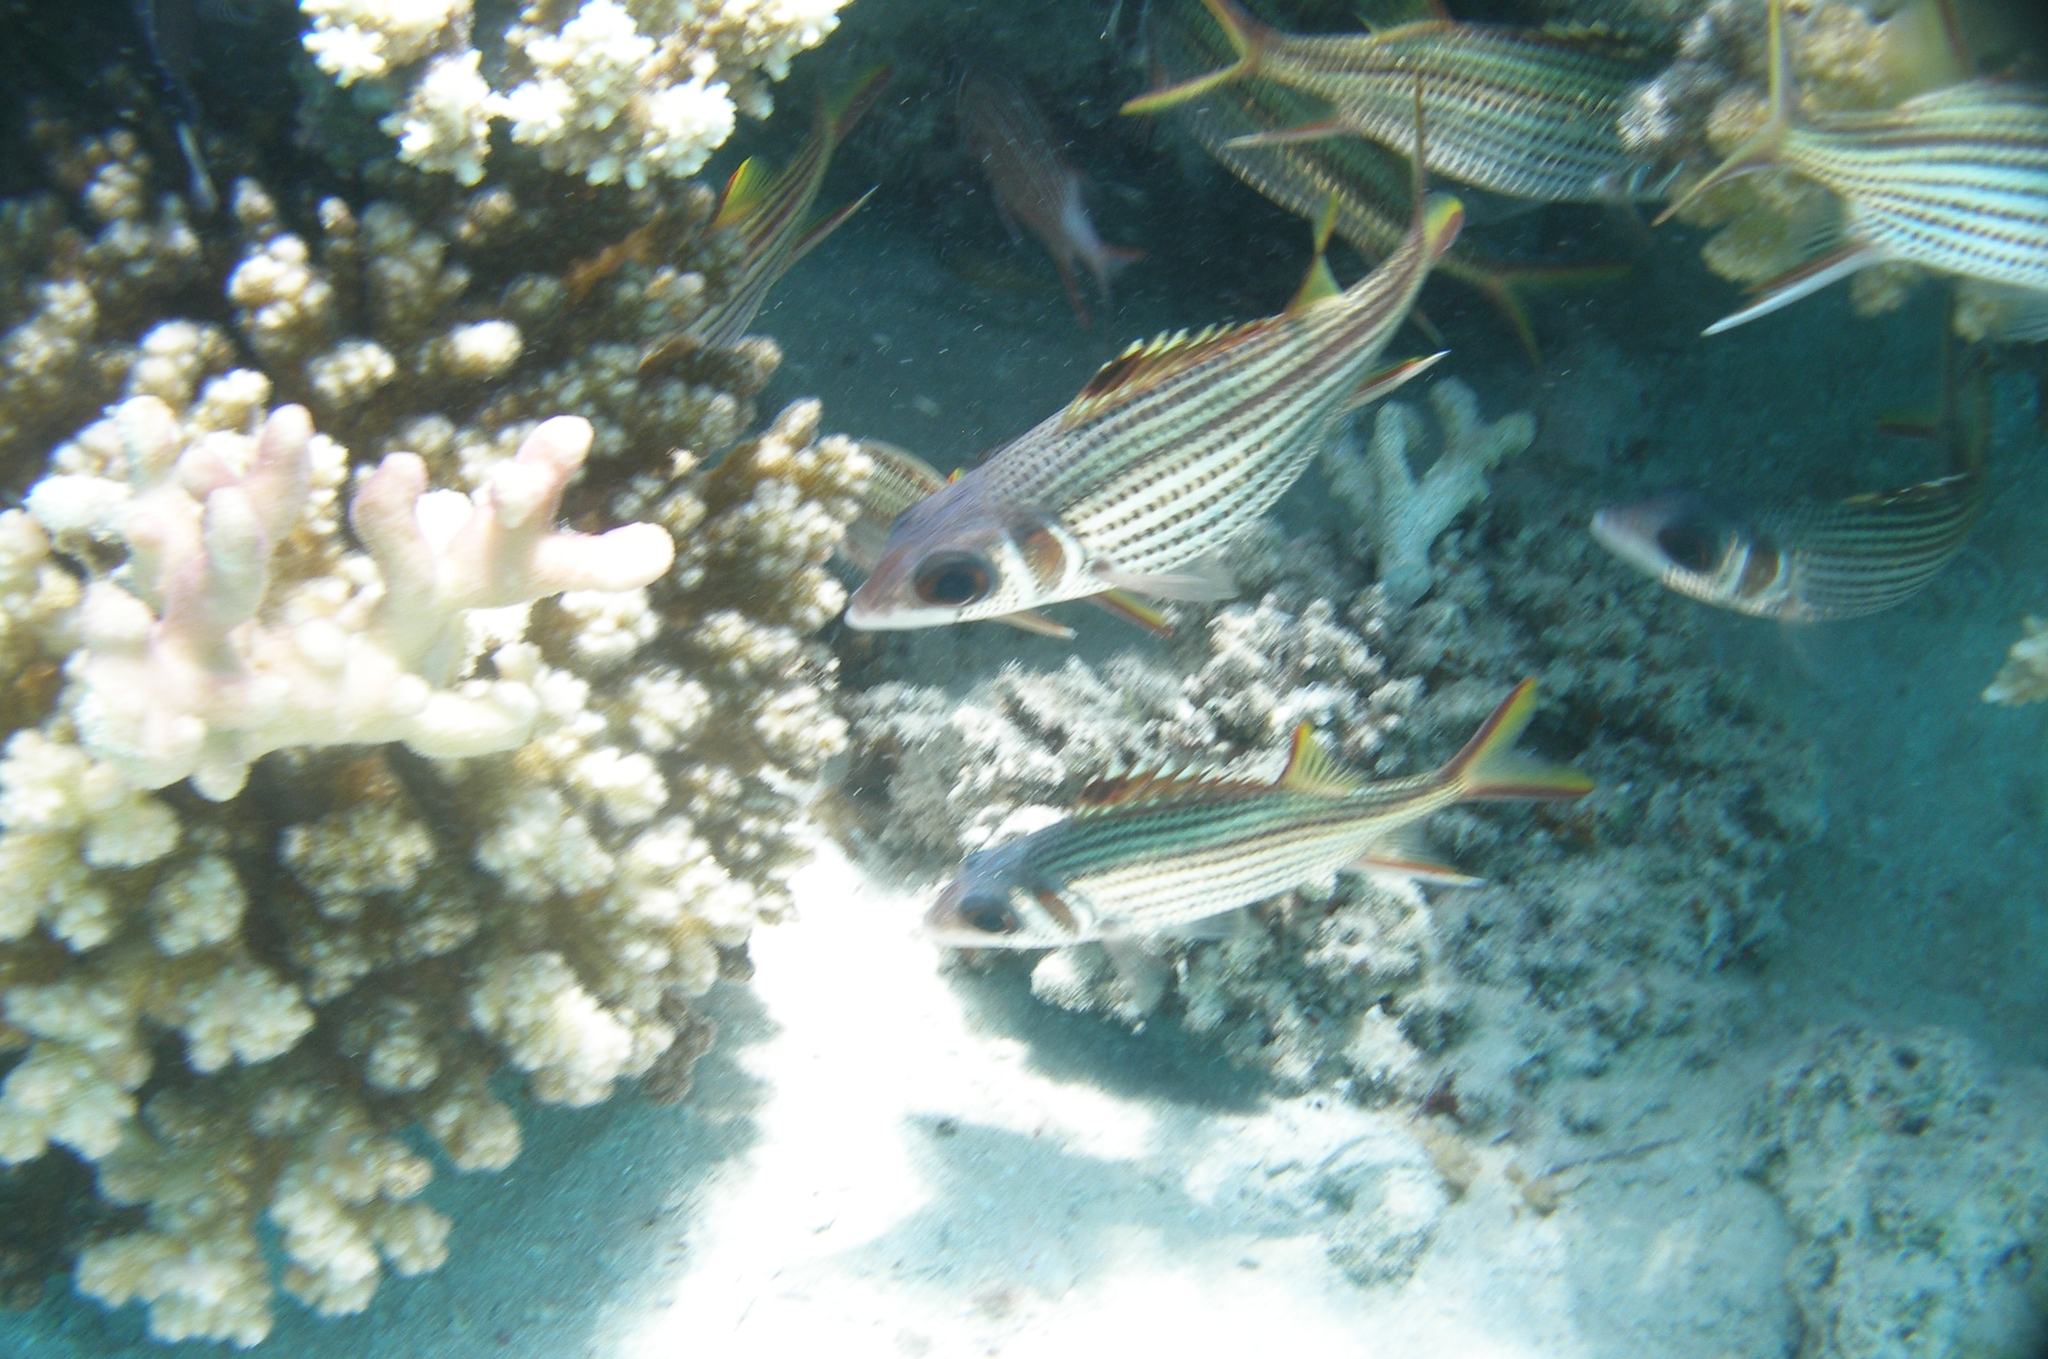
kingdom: Animalia
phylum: Chordata
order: Beryciformes
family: Holocentridae
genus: Neoniphon
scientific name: Neoniphon sammara
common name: Sammara squirrelfish
